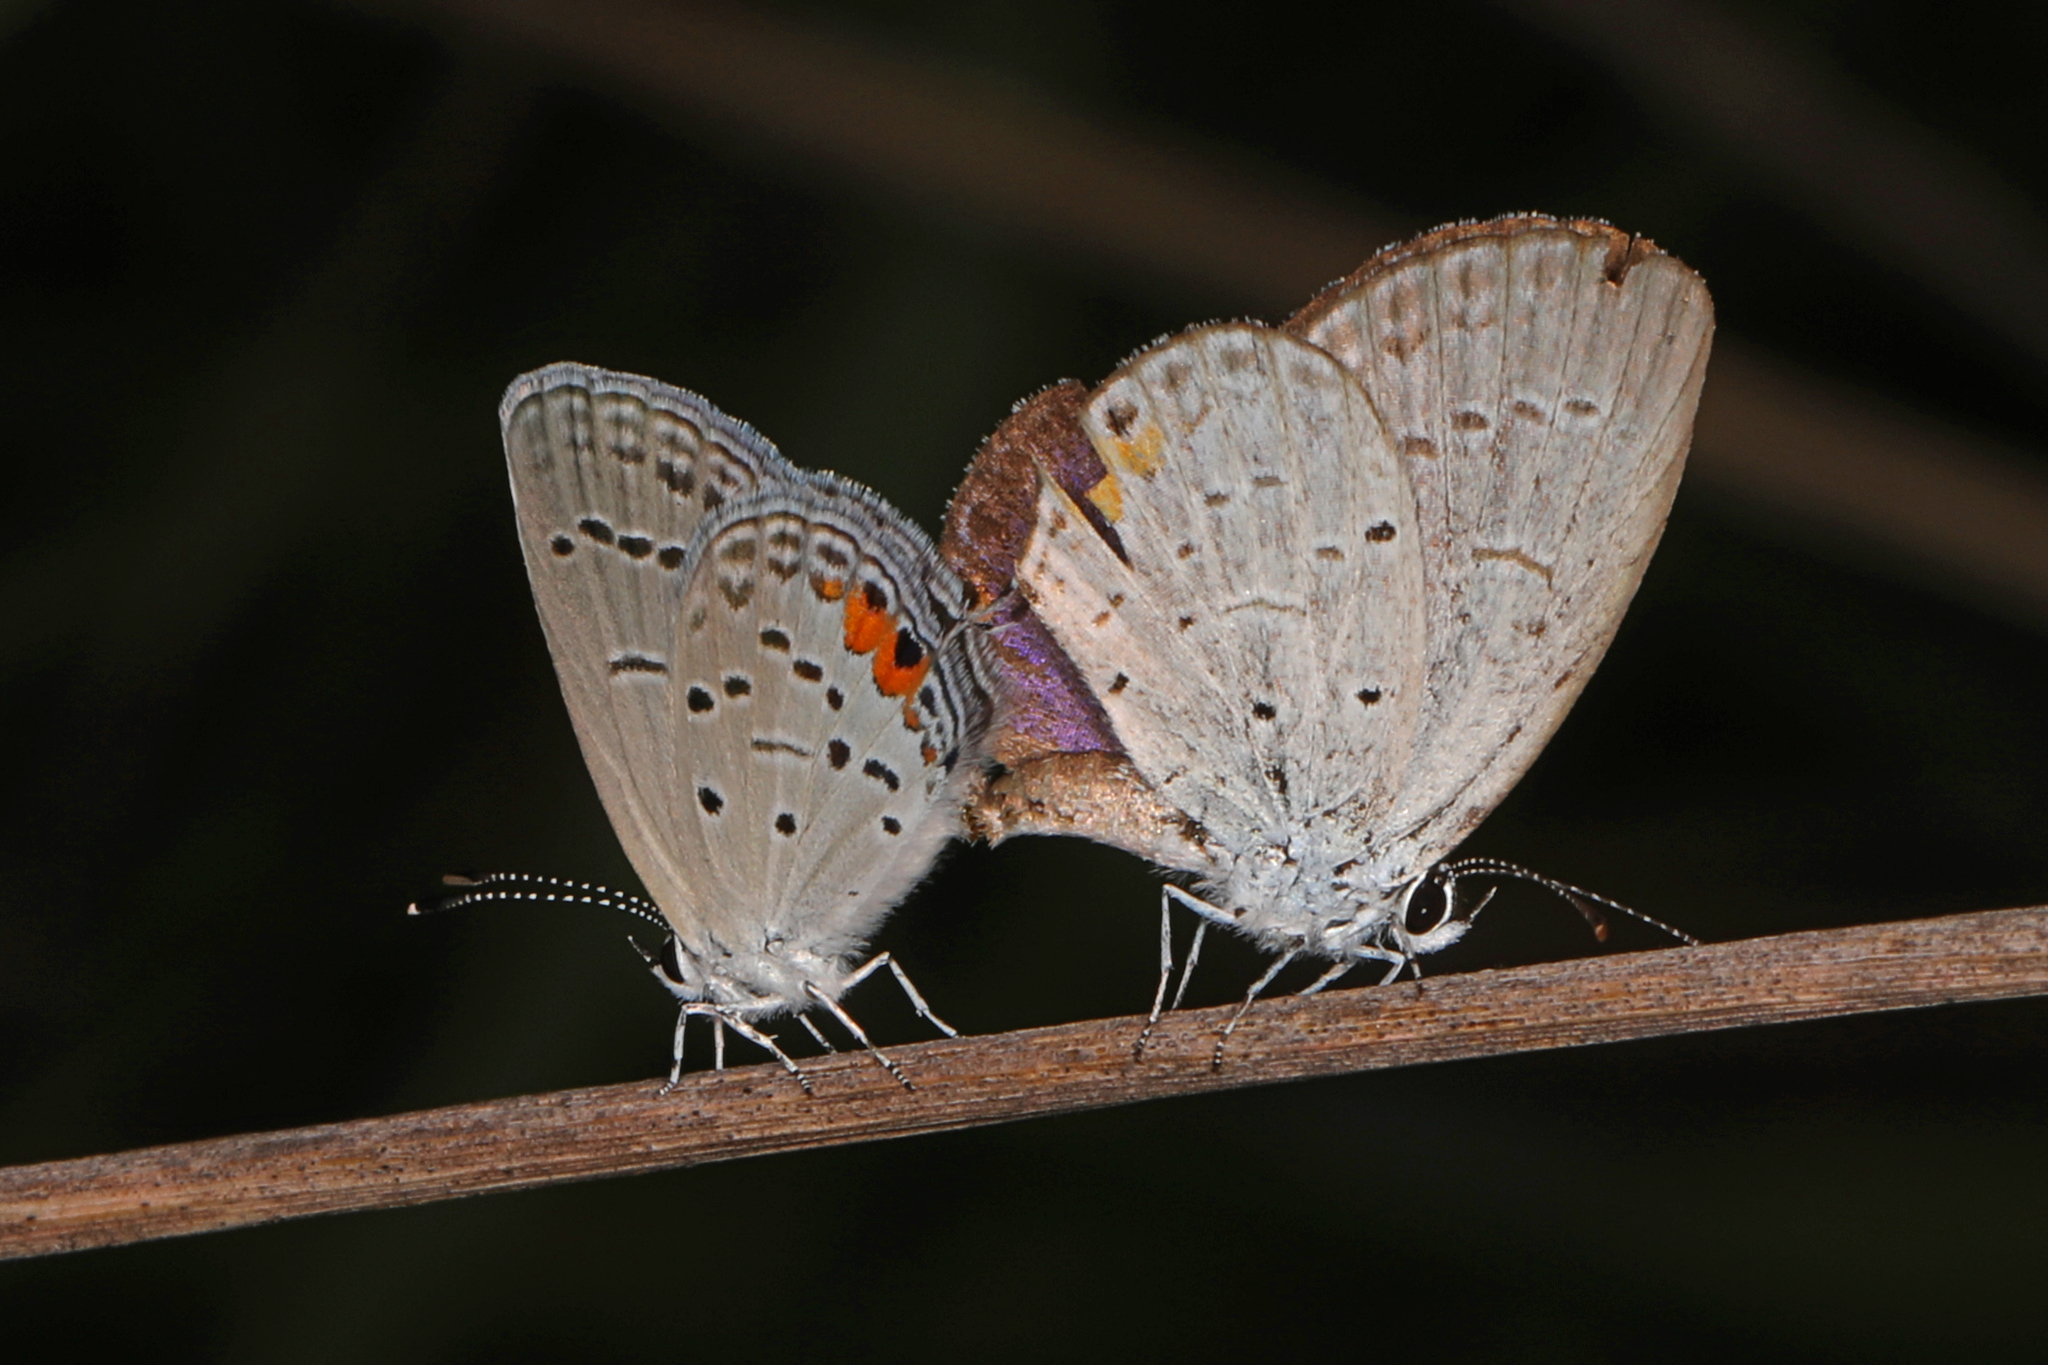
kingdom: Animalia
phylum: Arthropoda
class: Insecta
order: Lepidoptera
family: Lycaenidae
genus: Elkalyce
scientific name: Elkalyce comyntas
